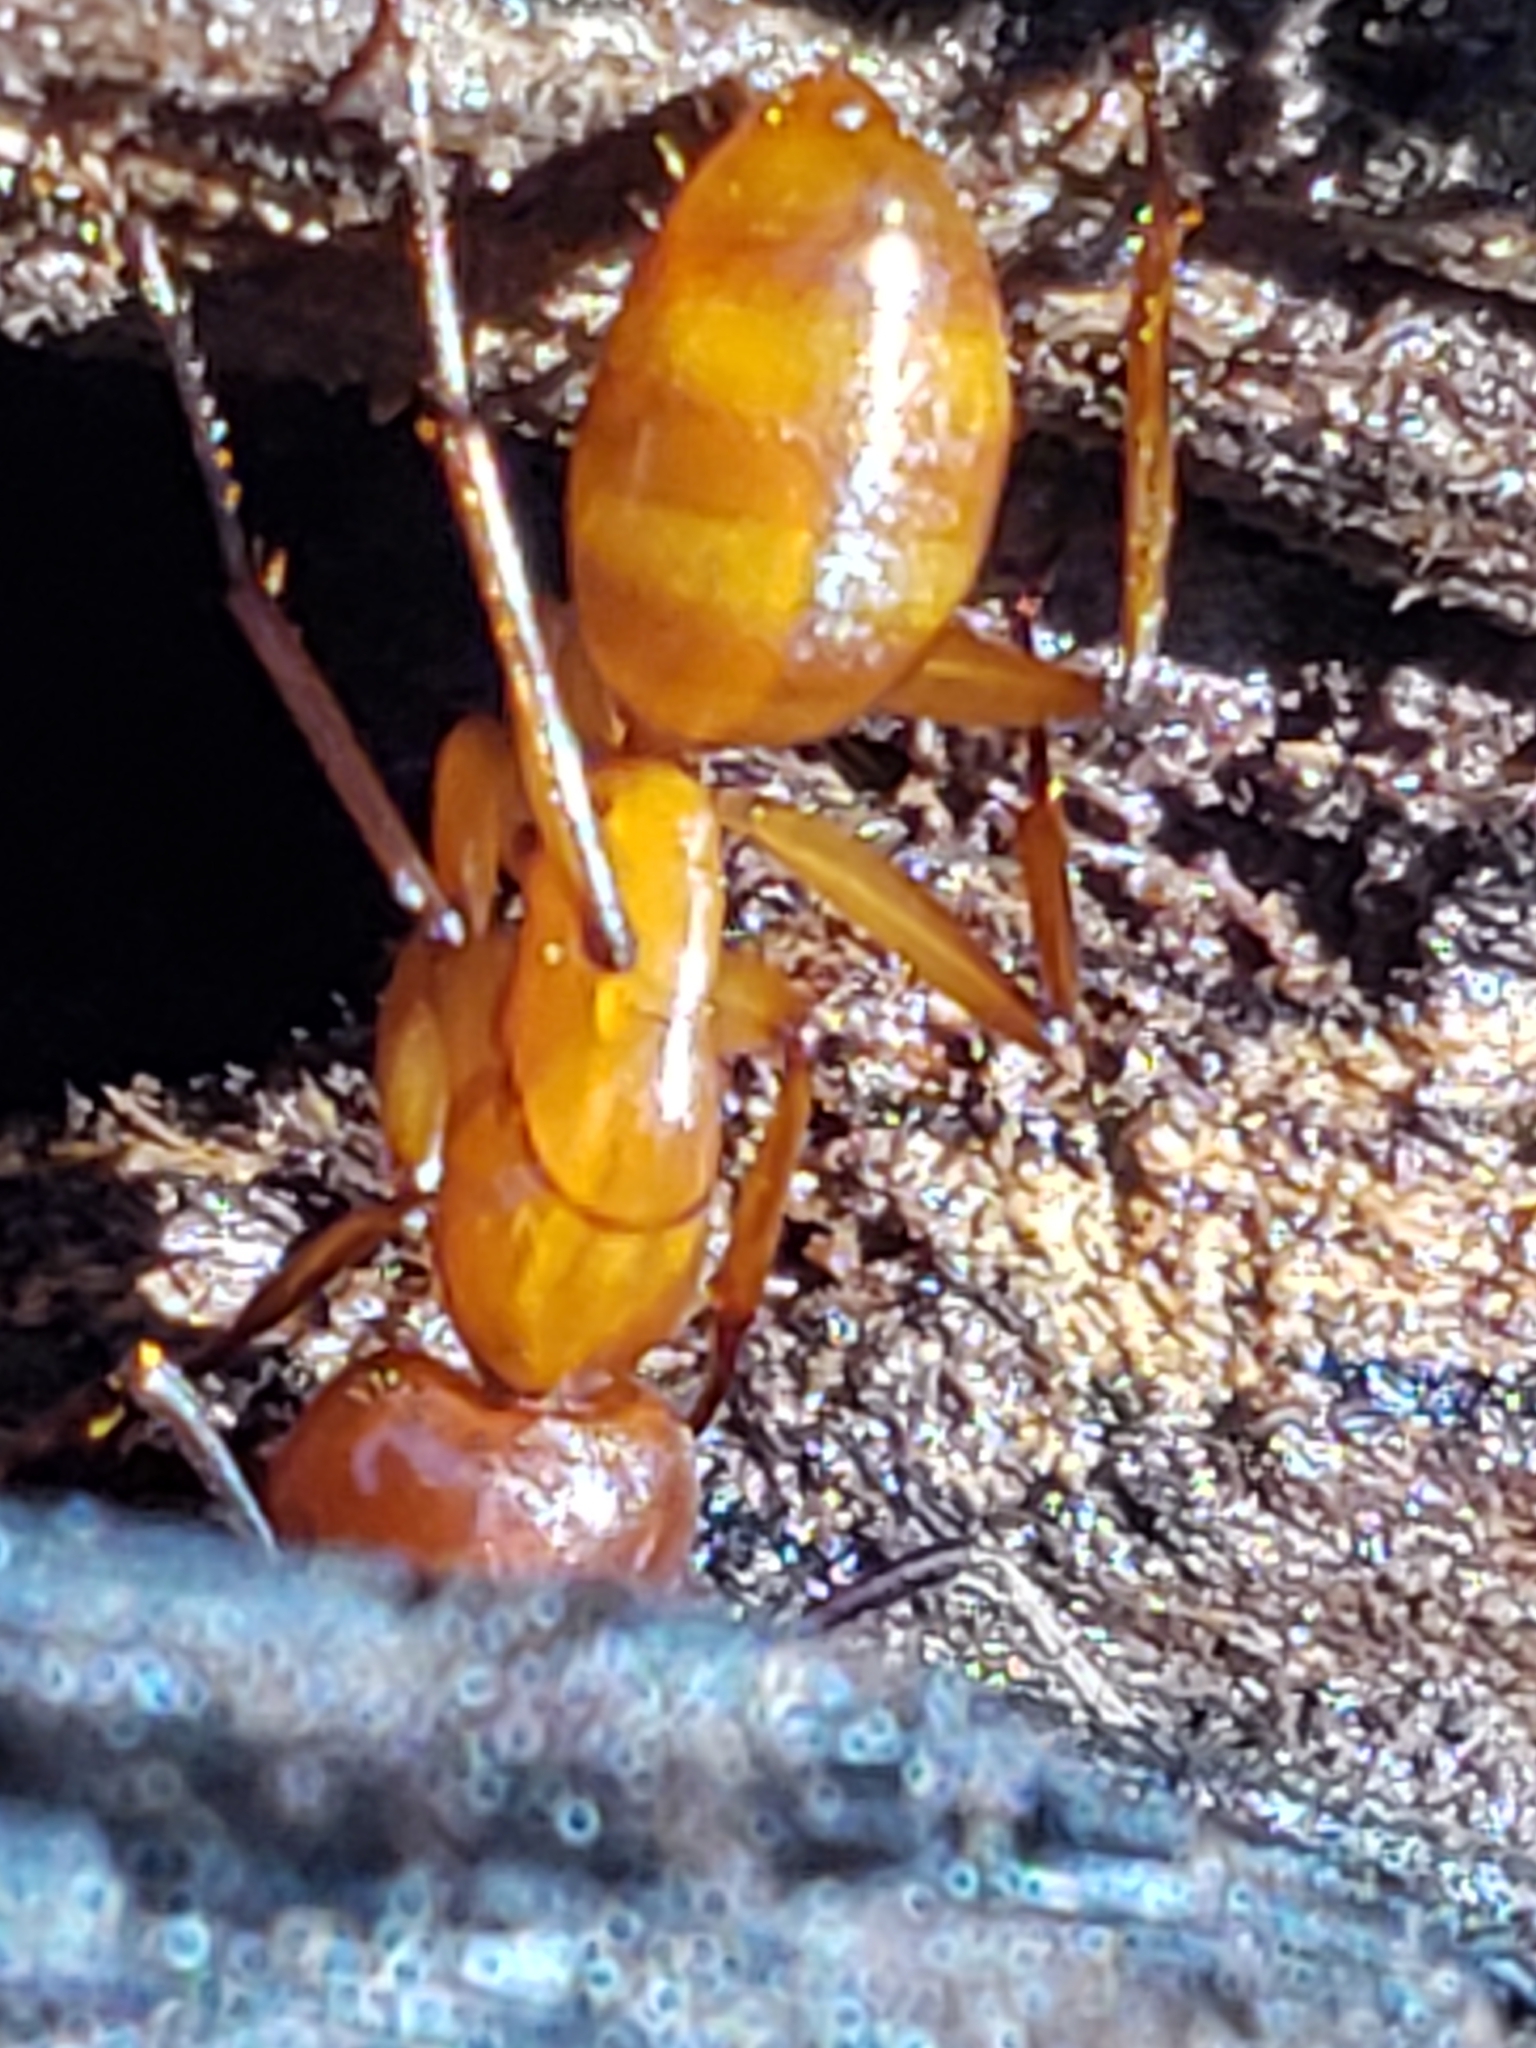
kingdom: Animalia
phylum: Arthropoda
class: Insecta
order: Hymenoptera
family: Formicidae
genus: Camponotus
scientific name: Camponotus castaneus
